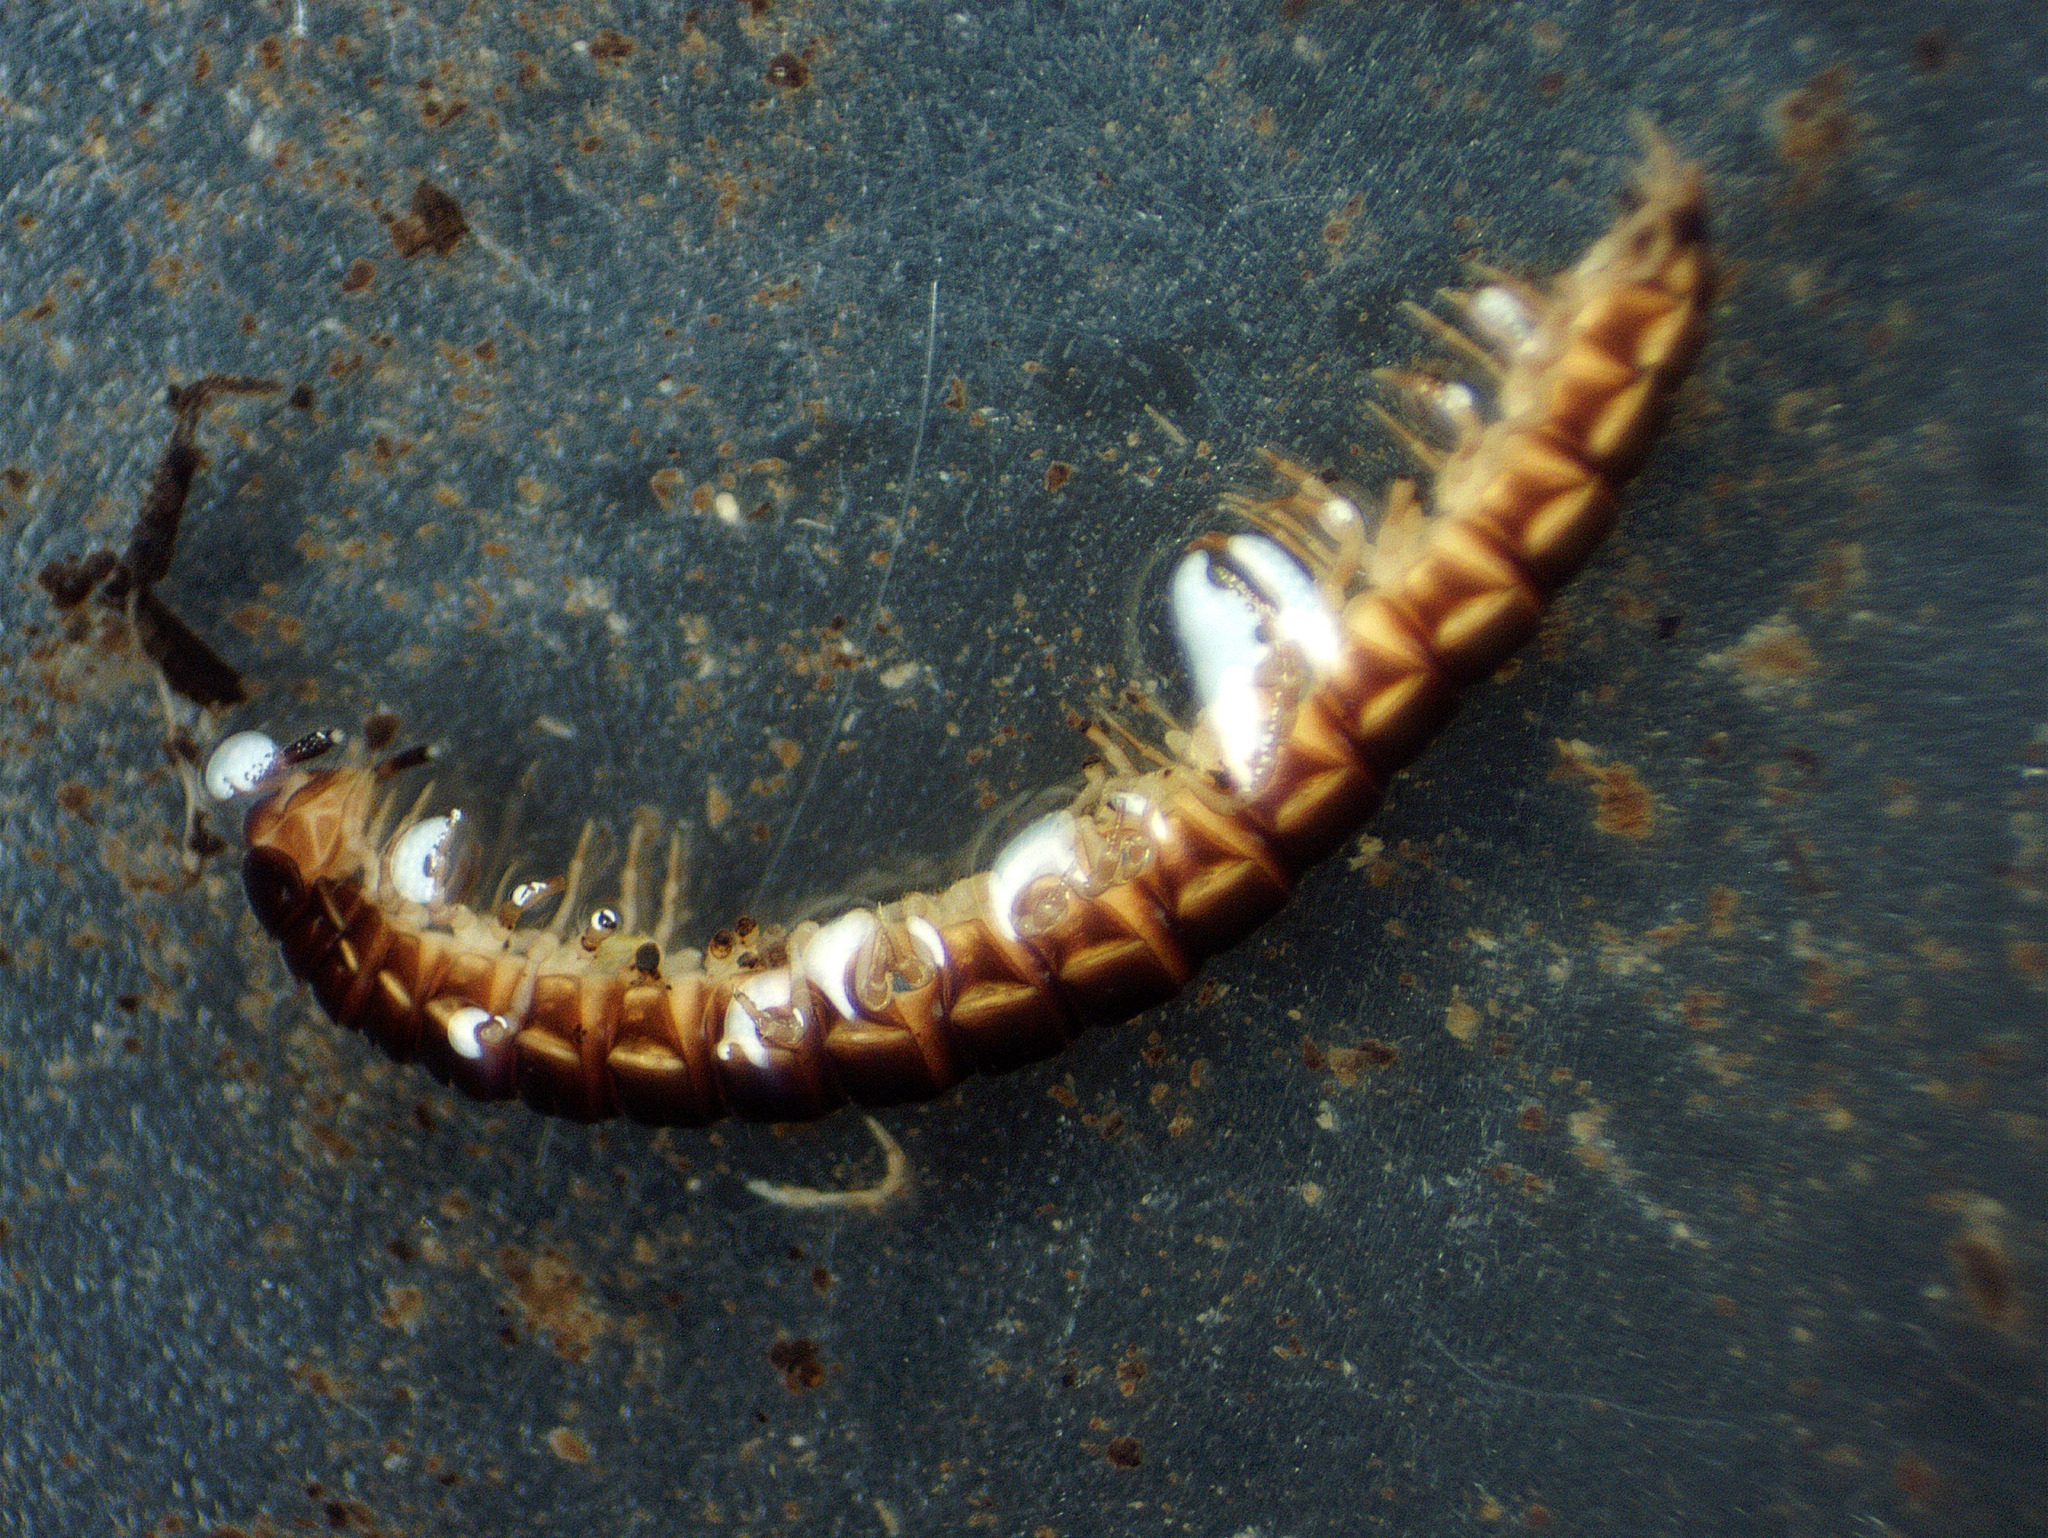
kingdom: Animalia
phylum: Arthropoda
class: Diplopoda
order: Polydesmida
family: Paradoxosomatidae
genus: Oxidus
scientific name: Oxidus gracilis
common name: Greenhouse millipede
